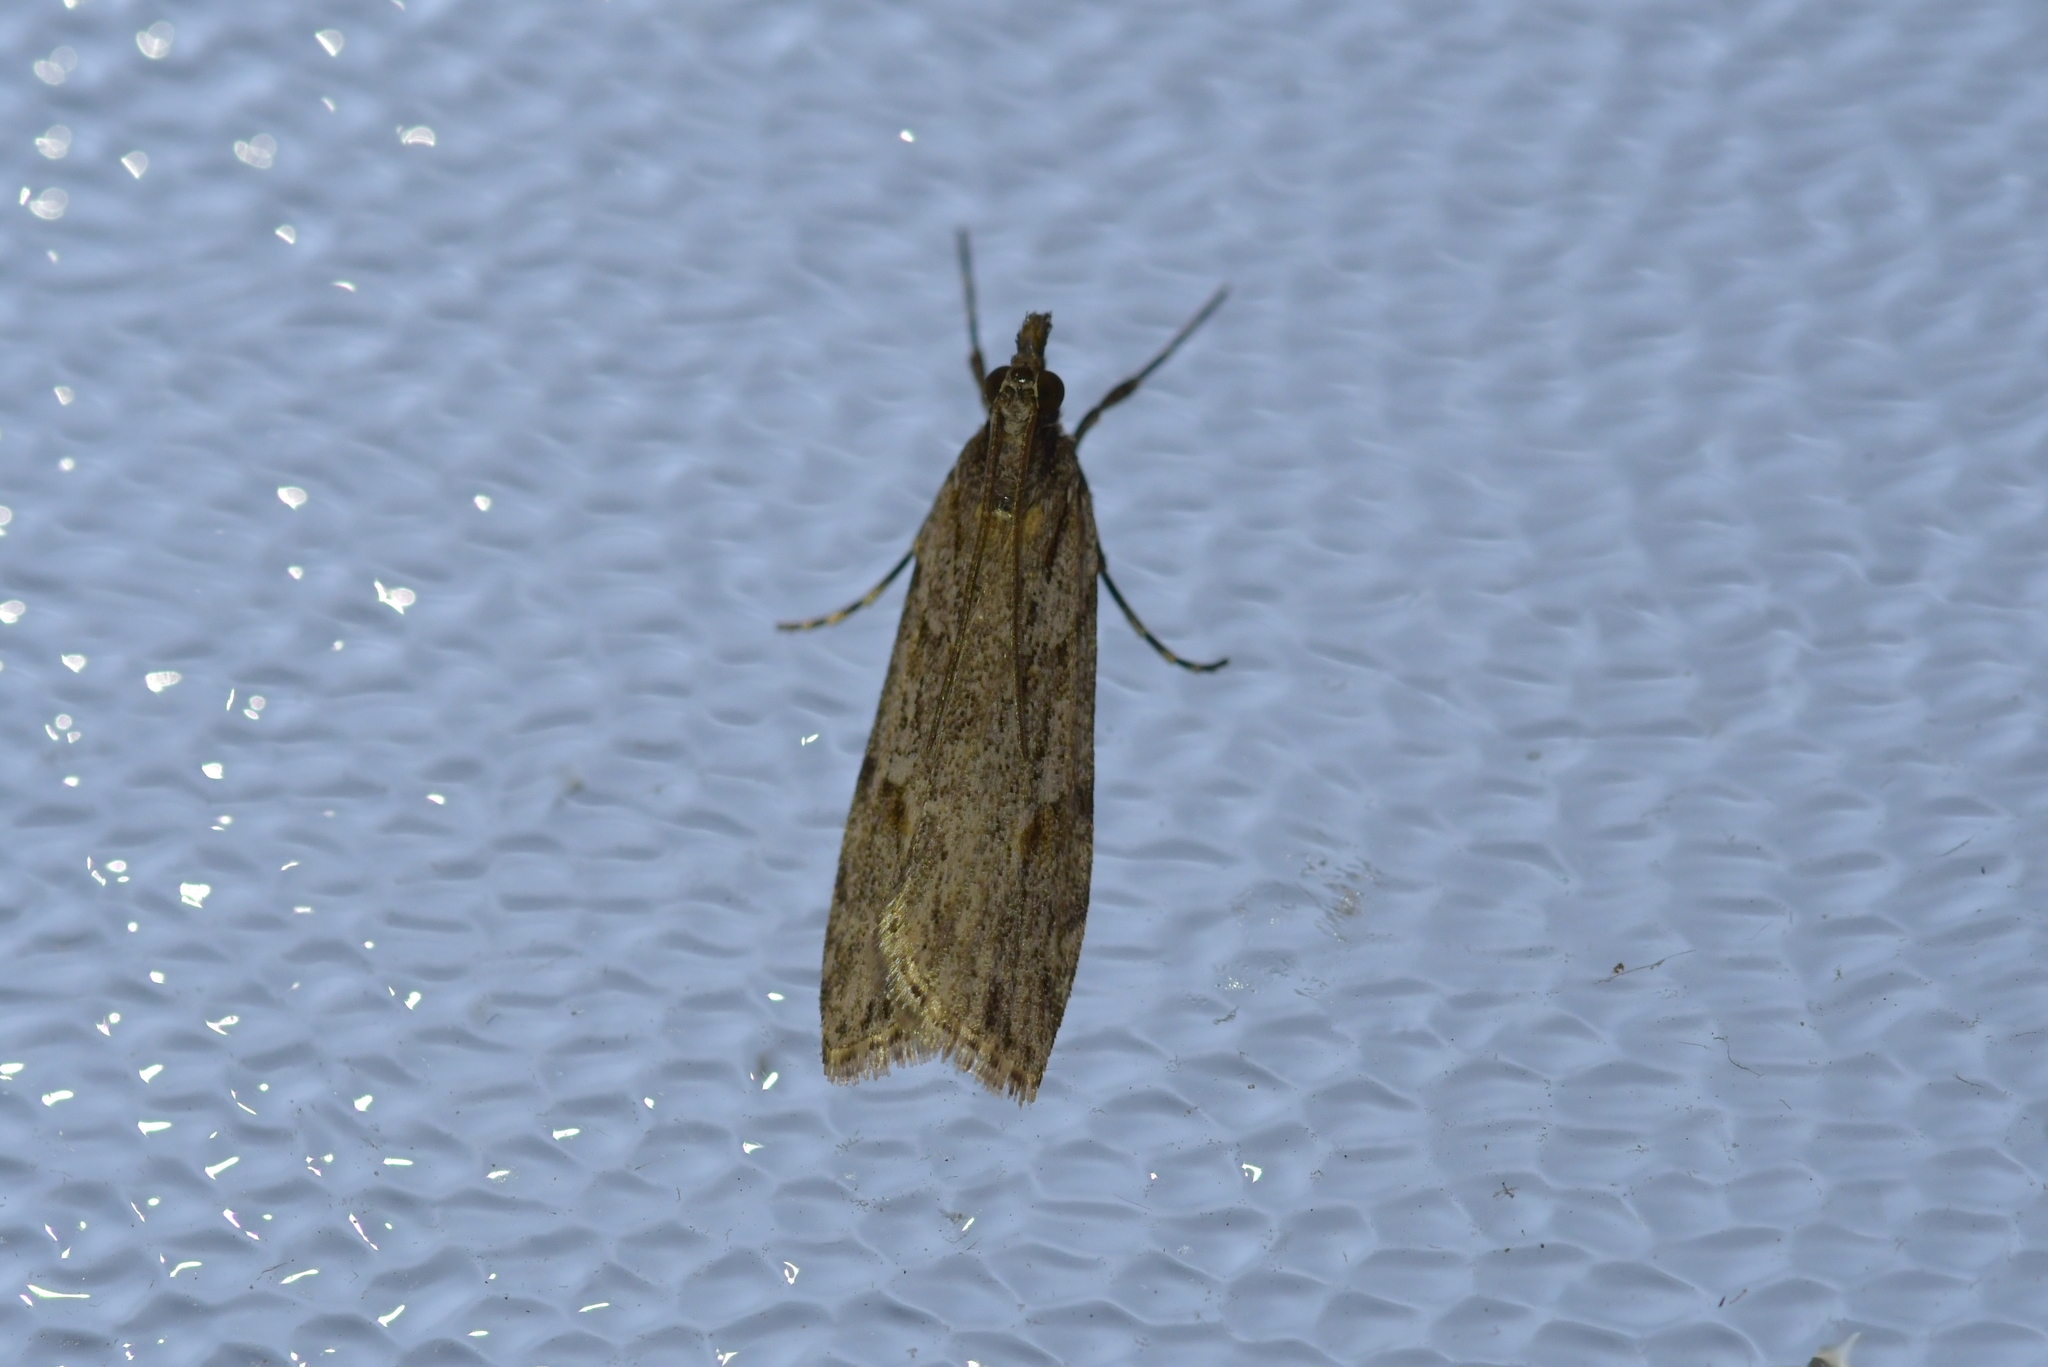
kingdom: Animalia
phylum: Arthropoda
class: Insecta
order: Lepidoptera
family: Crambidae
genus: Scoparia
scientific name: Scoparia chalicodes
